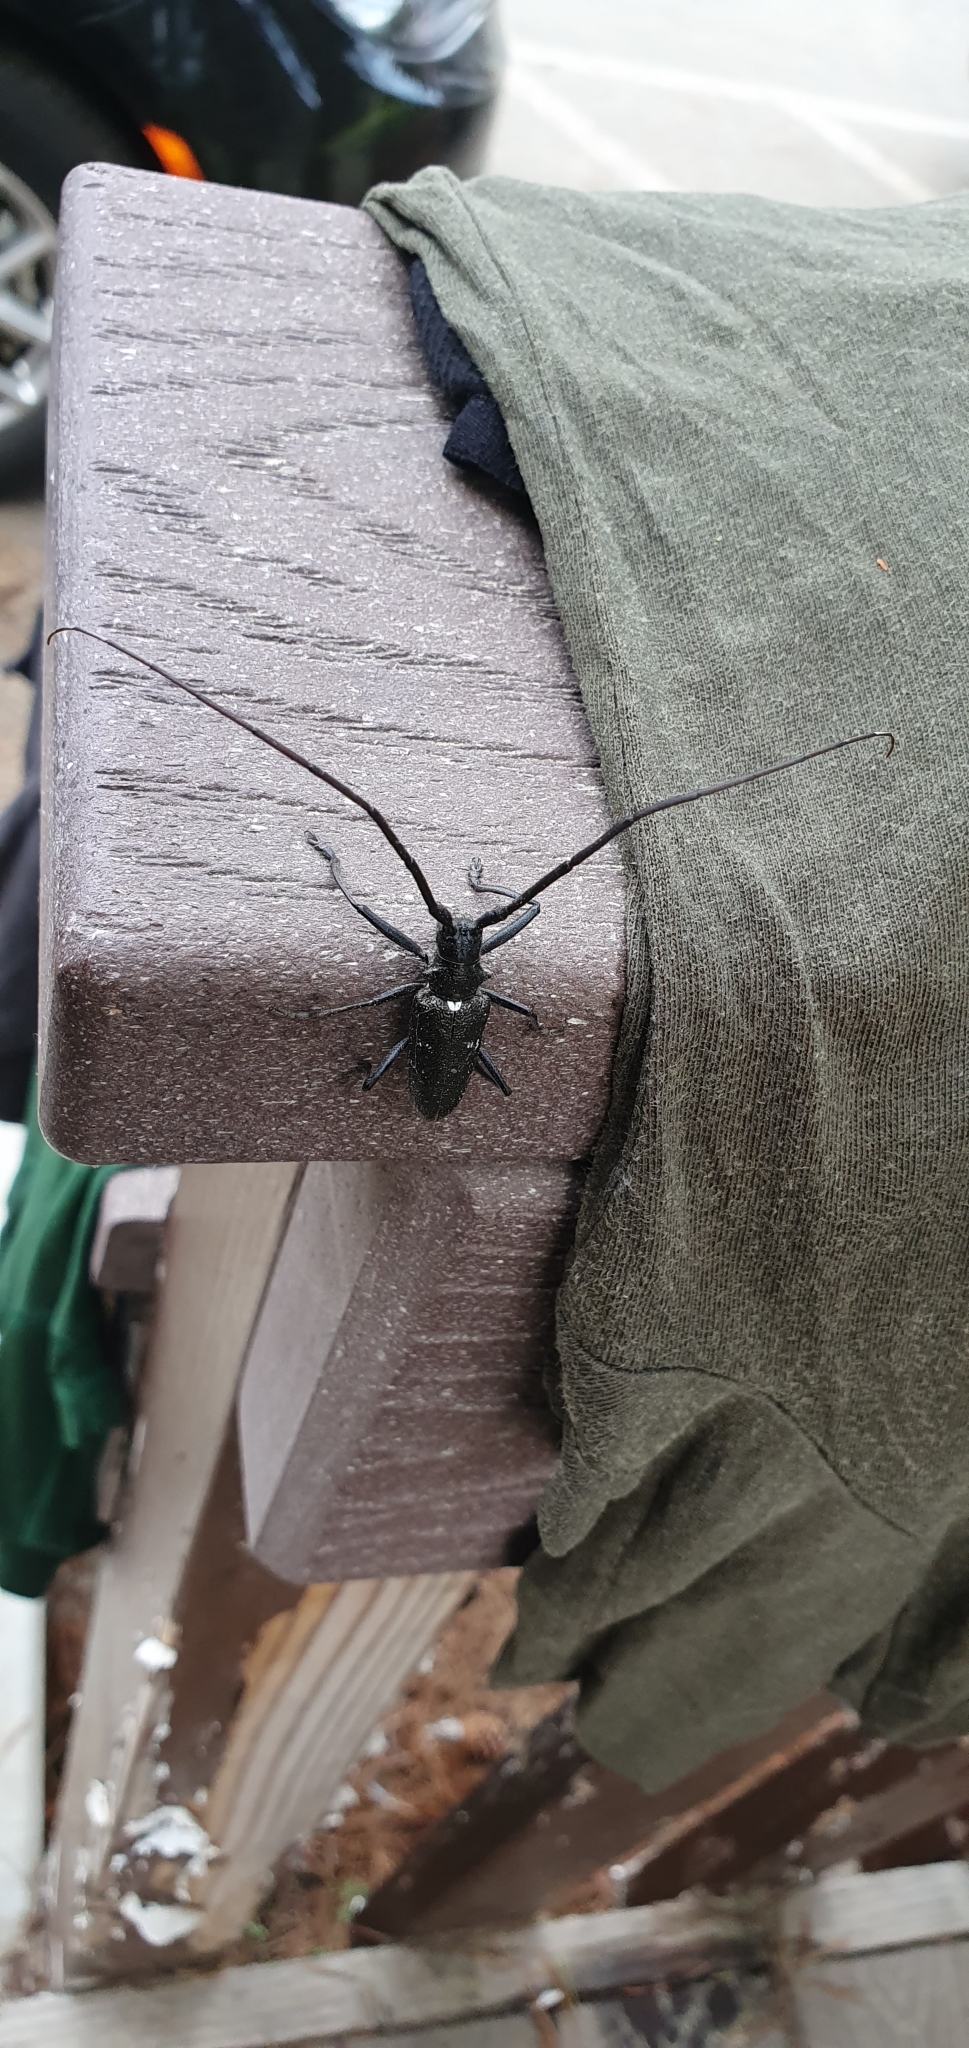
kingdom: Animalia
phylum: Arthropoda
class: Insecta
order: Coleoptera
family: Cerambycidae
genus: Monochamus
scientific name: Monochamus scutellatus
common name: White-spotted sawyer beetle
